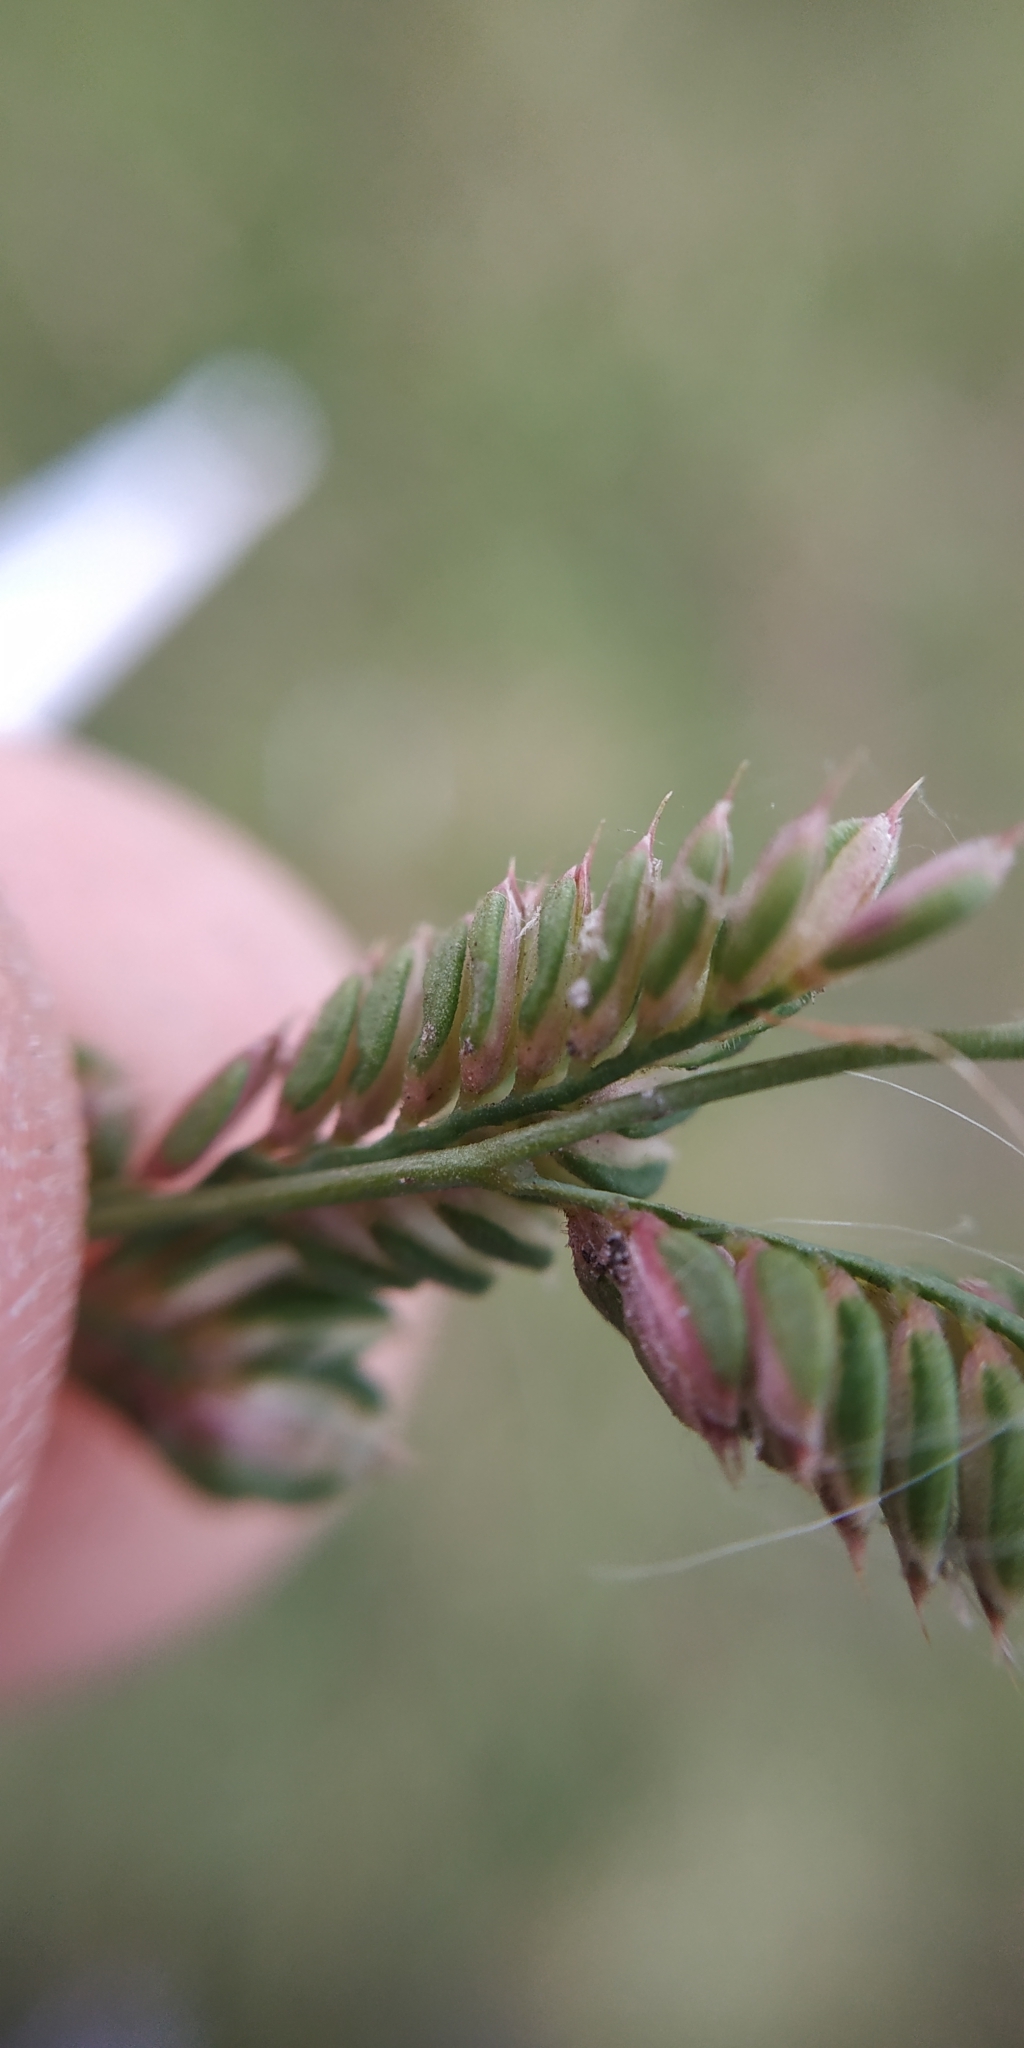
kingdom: Plantae
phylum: Tracheophyta
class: Liliopsida
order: Poales
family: Poaceae
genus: Beckmannia
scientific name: Beckmannia eruciformis
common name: European slough-grass
